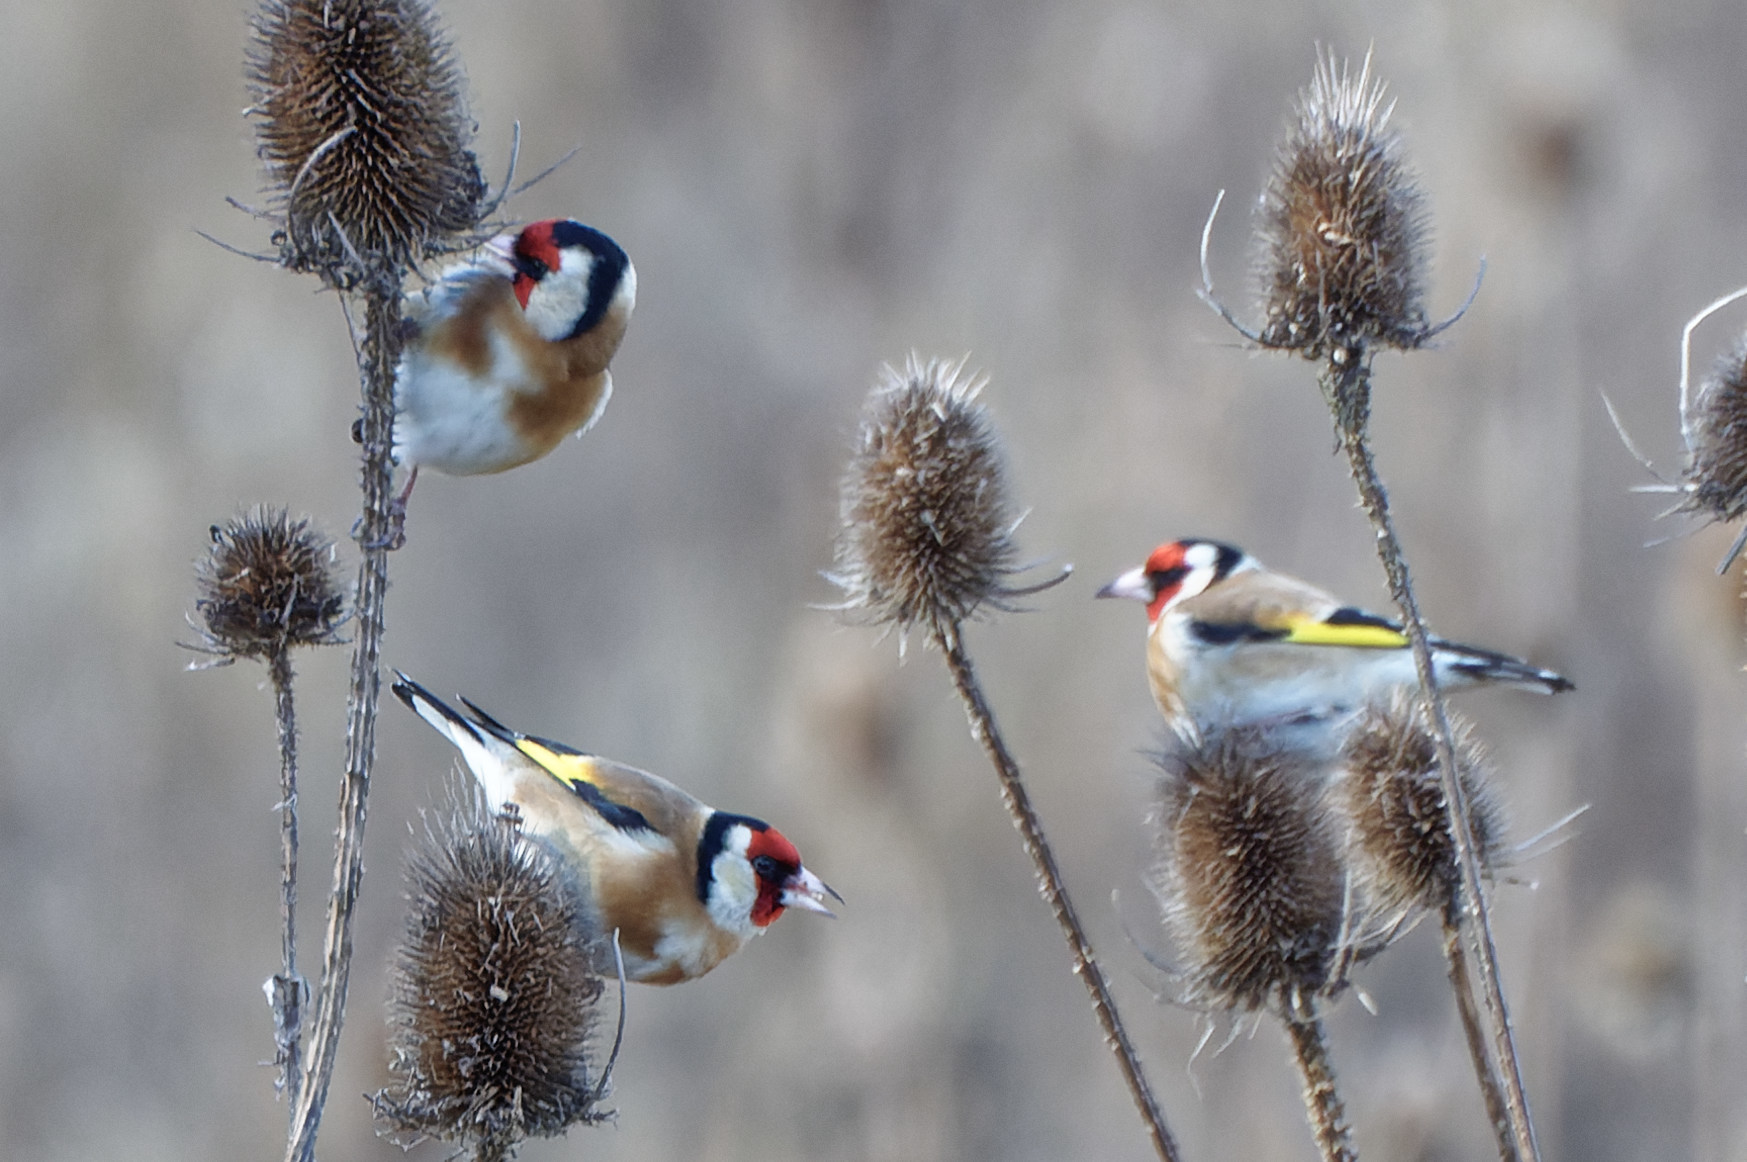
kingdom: Animalia
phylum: Chordata
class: Aves
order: Passeriformes
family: Fringillidae
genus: Carduelis
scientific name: Carduelis carduelis
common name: European goldfinch
